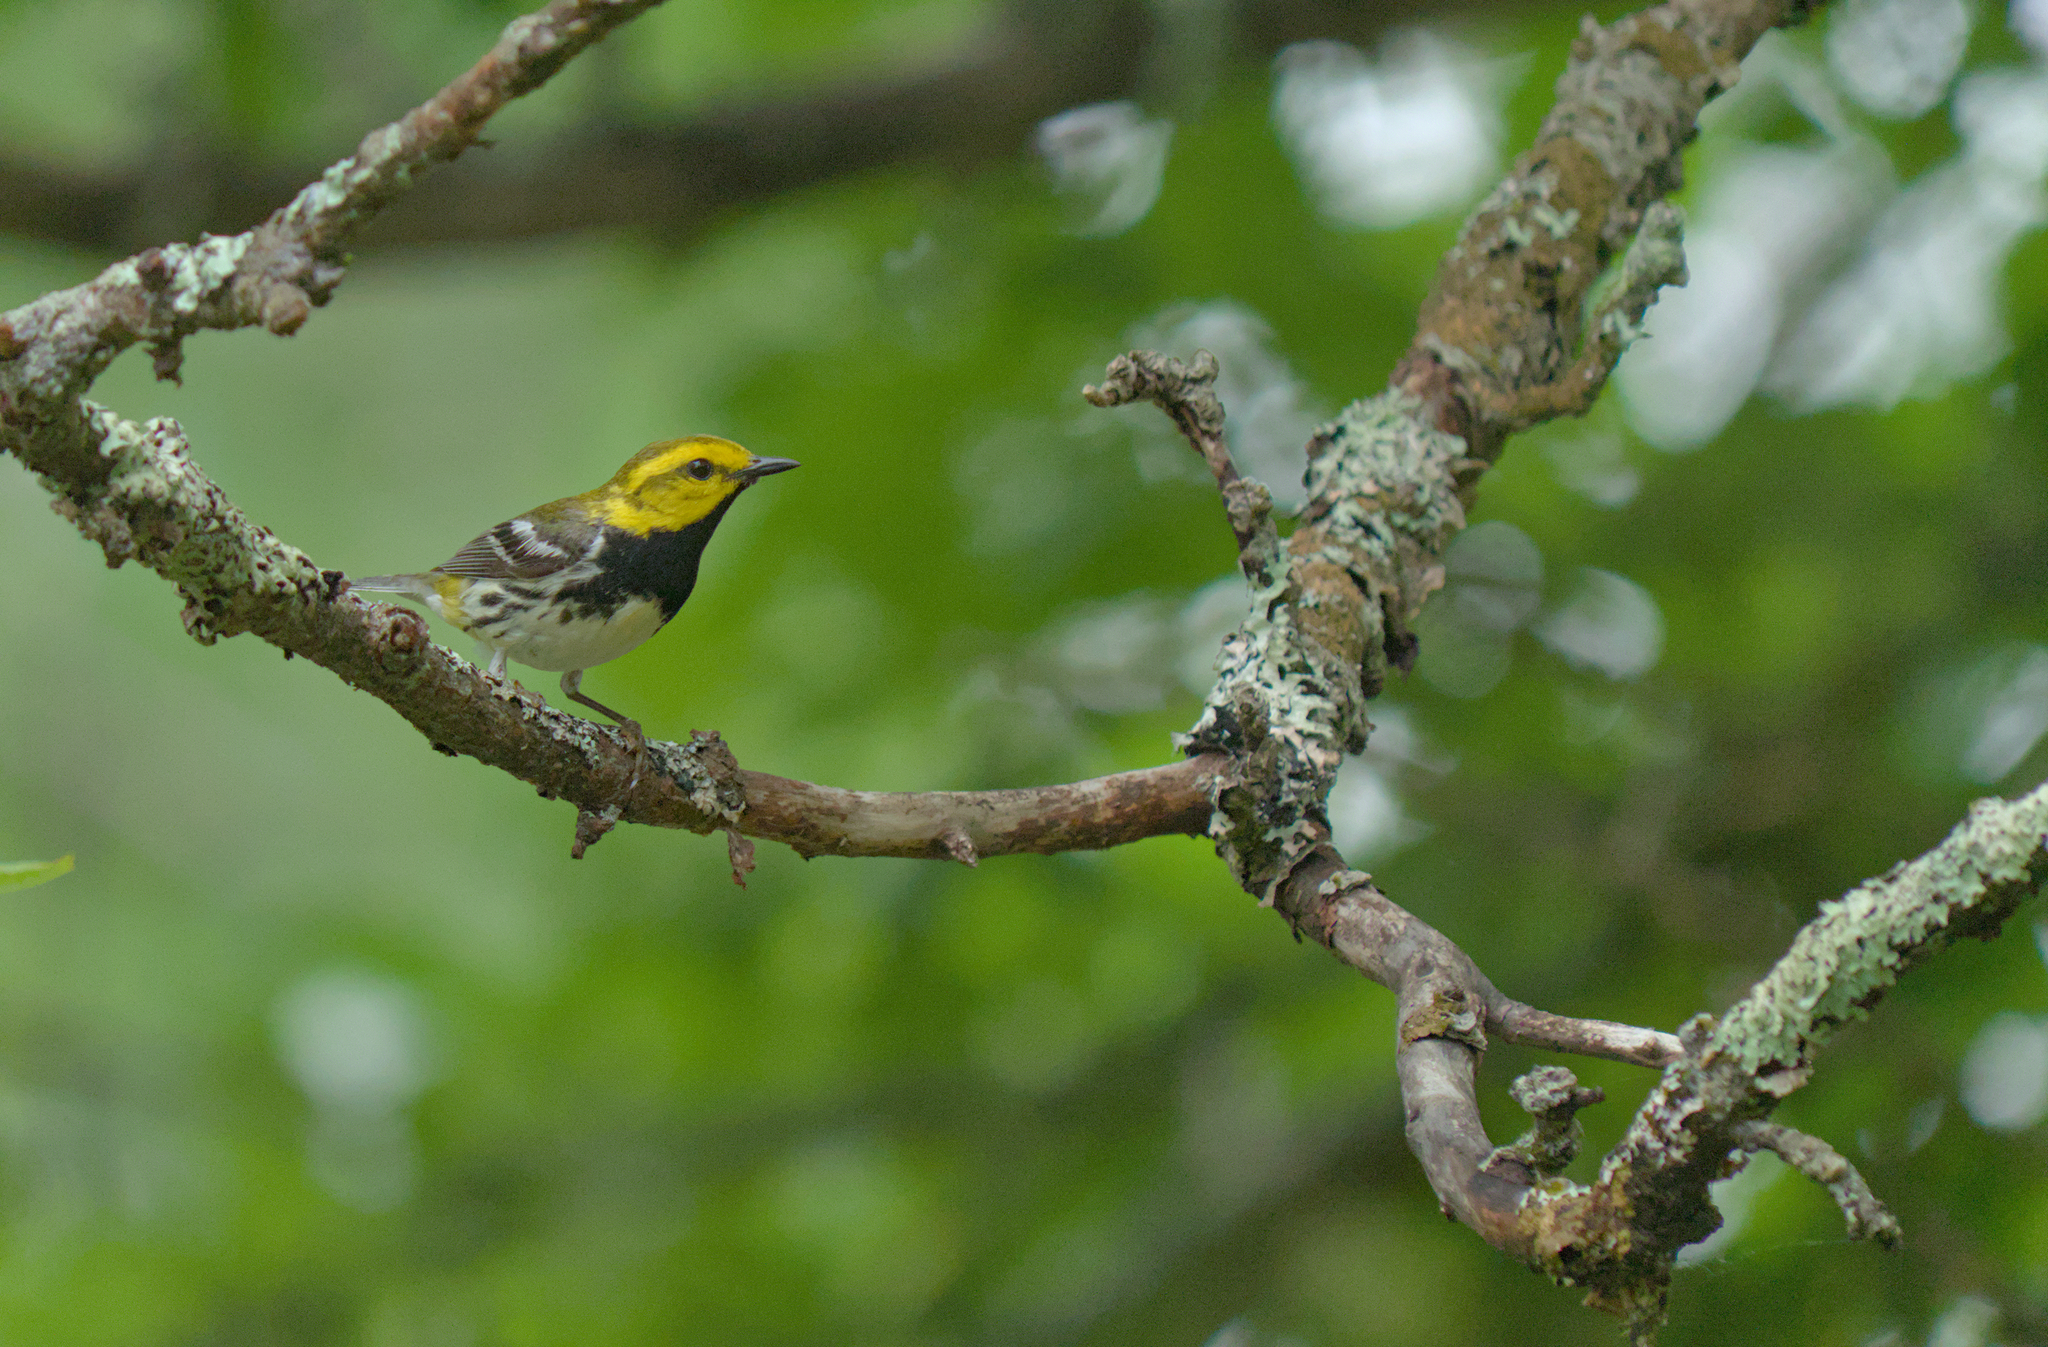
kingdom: Animalia
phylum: Chordata
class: Aves
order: Passeriformes
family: Parulidae
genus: Setophaga
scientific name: Setophaga virens
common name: Black-throated green warbler
